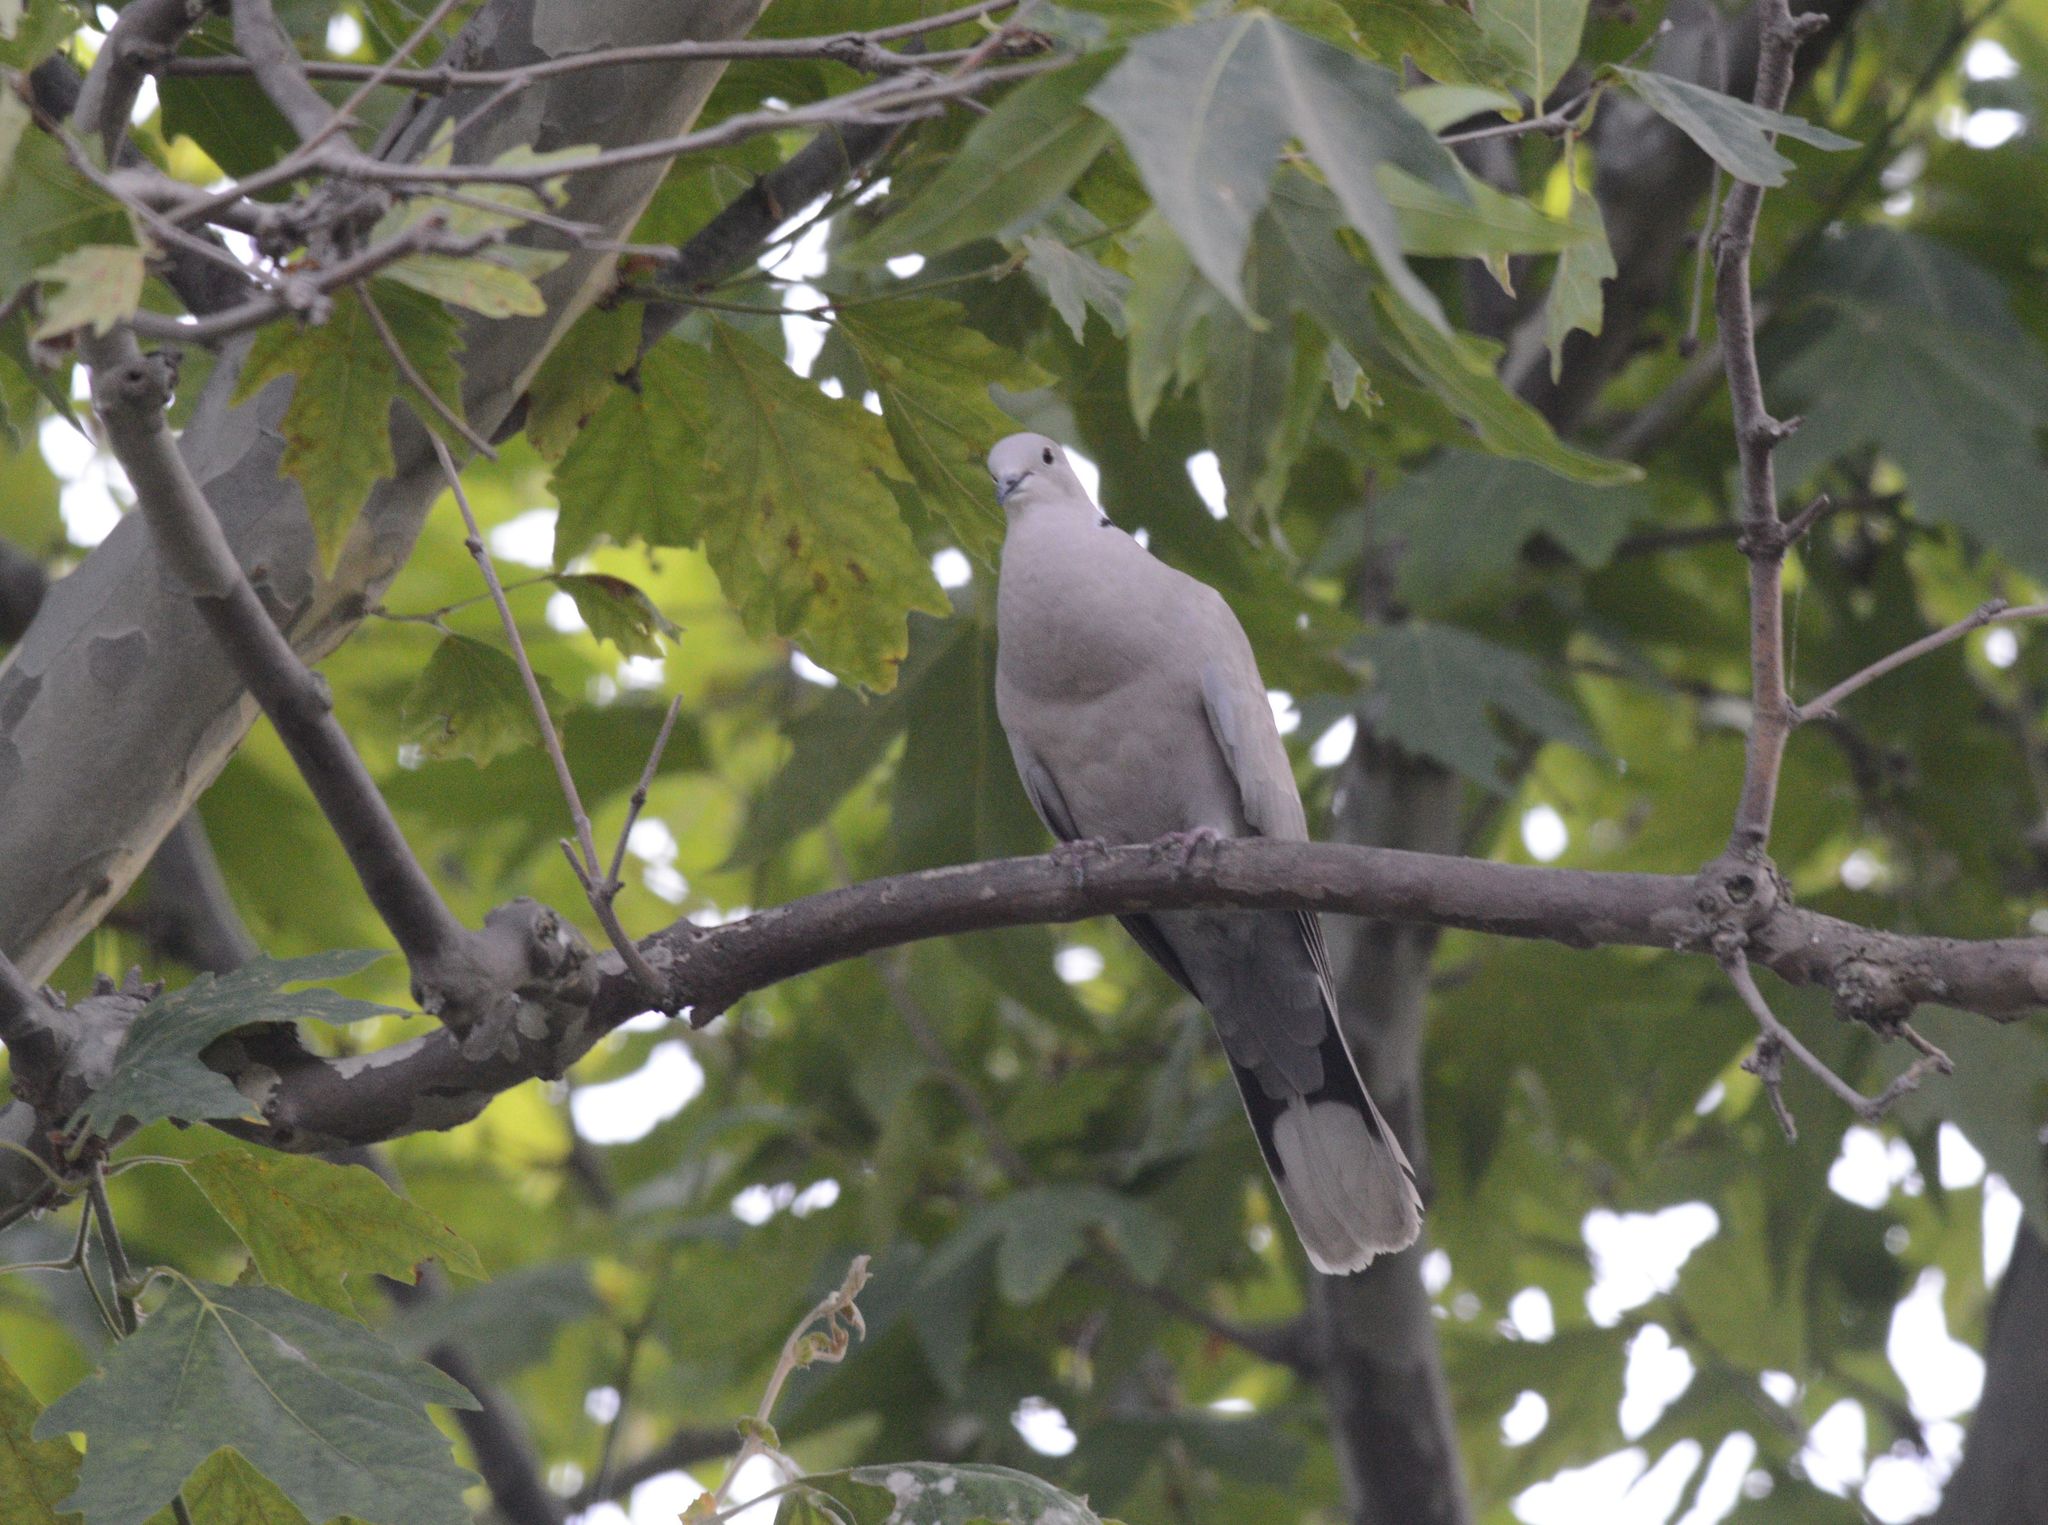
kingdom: Animalia
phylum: Chordata
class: Aves
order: Columbiformes
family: Columbidae
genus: Streptopelia
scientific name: Streptopelia decaocto
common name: Eurasian collared dove
